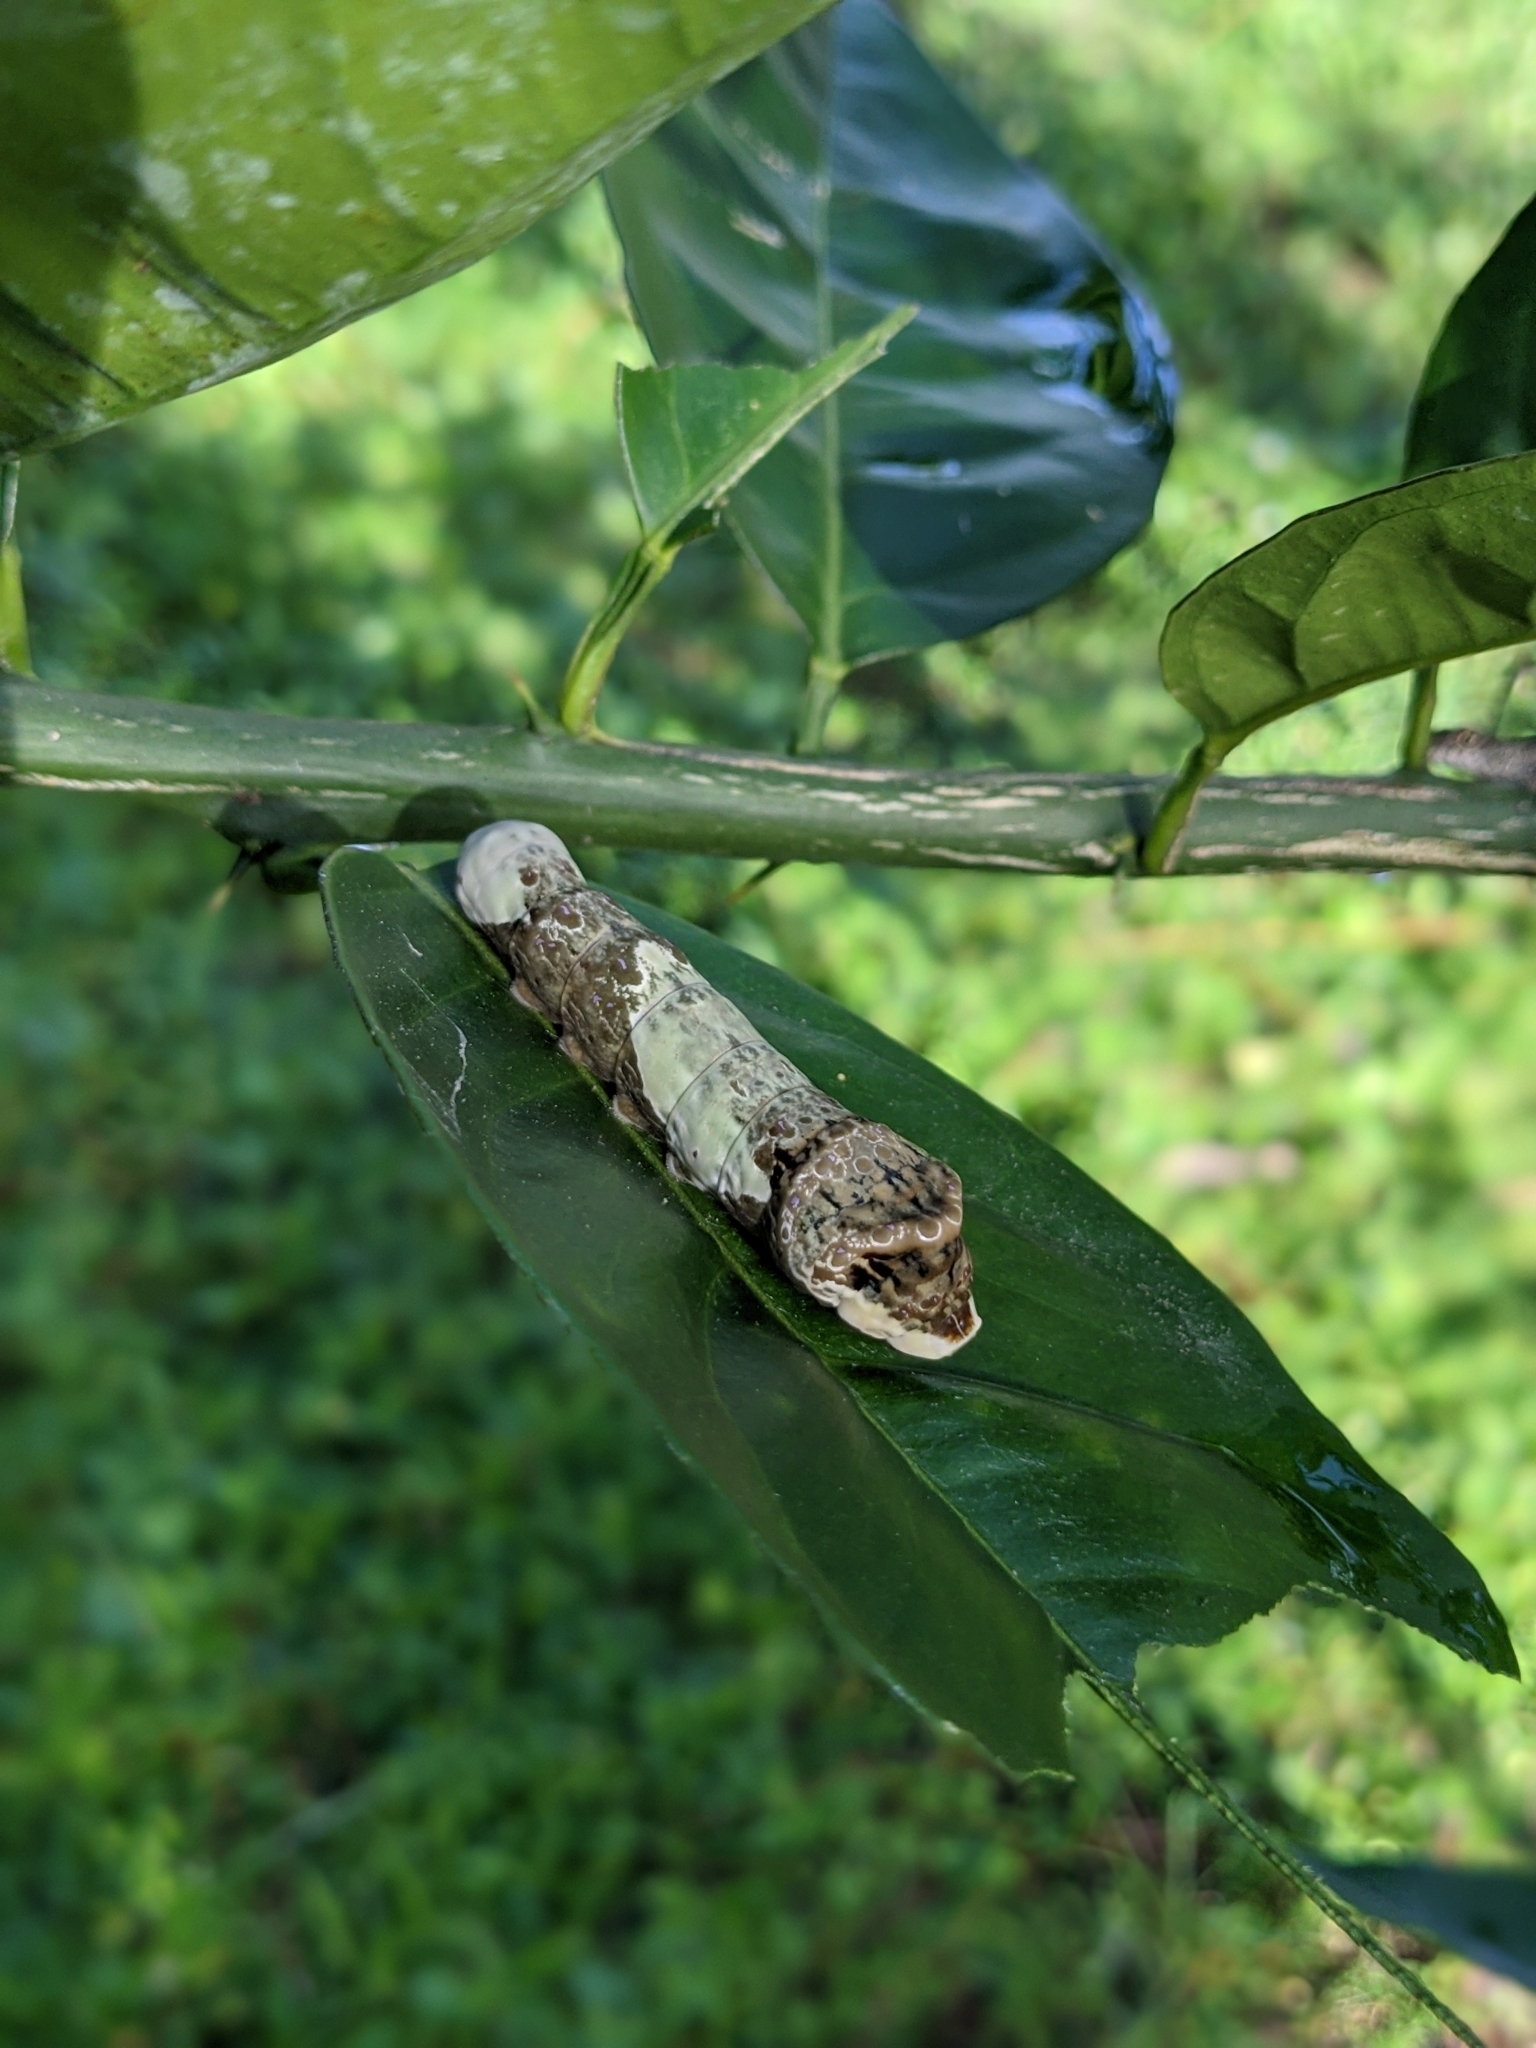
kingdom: Animalia
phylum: Arthropoda
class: Insecta
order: Lepidoptera
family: Papilionidae
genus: Papilio
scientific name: Papilio cresphontes
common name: Giant swallowtail
